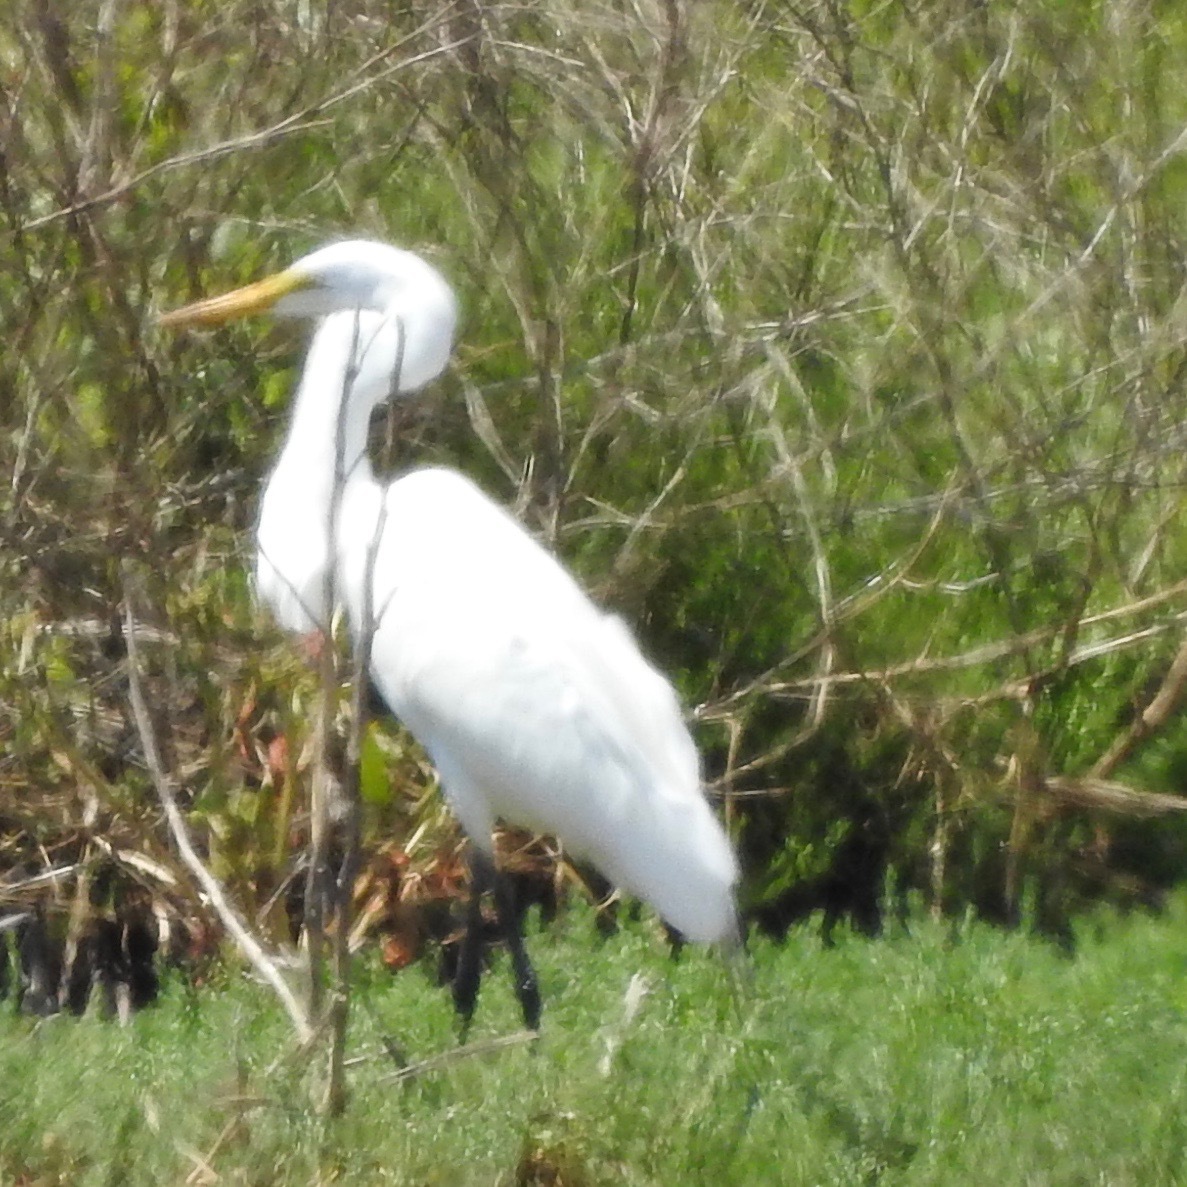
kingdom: Animalia
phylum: Chordata
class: Aves
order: Pelecaniformes
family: Ardeidae
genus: Ardea
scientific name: Ardea alba
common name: Great egret
